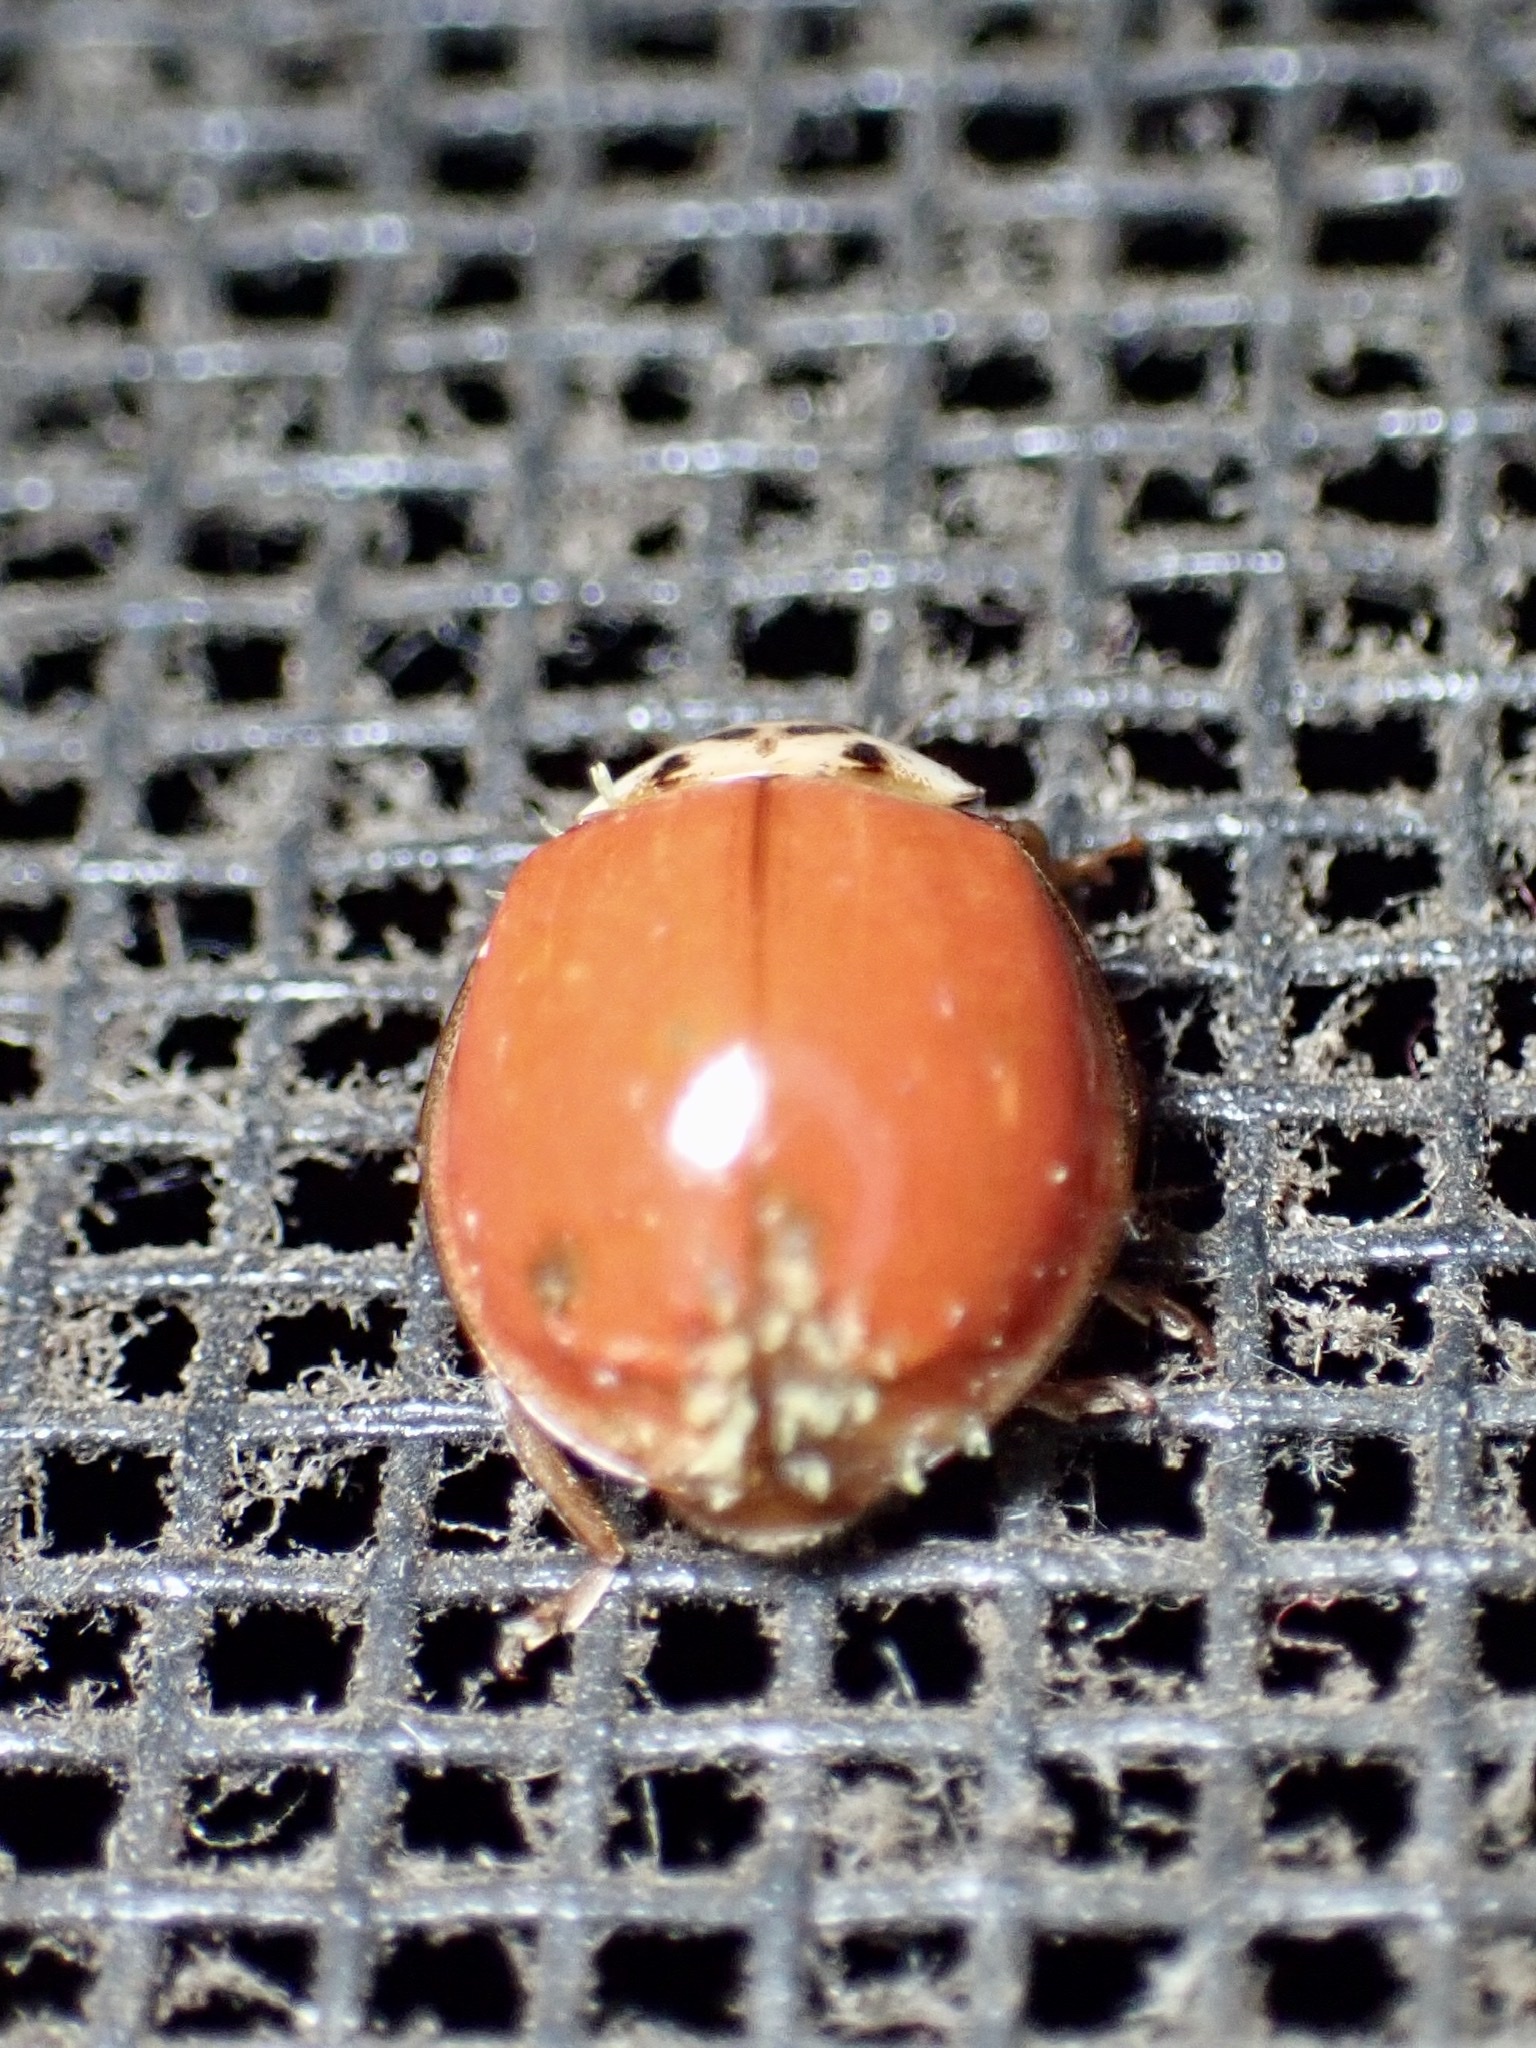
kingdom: Animalia
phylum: Arthropoda
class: Insecta
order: Coleoptera
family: Coccinellidae
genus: Harmonia
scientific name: Harmonia axyridis
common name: Harlequin ladybird
